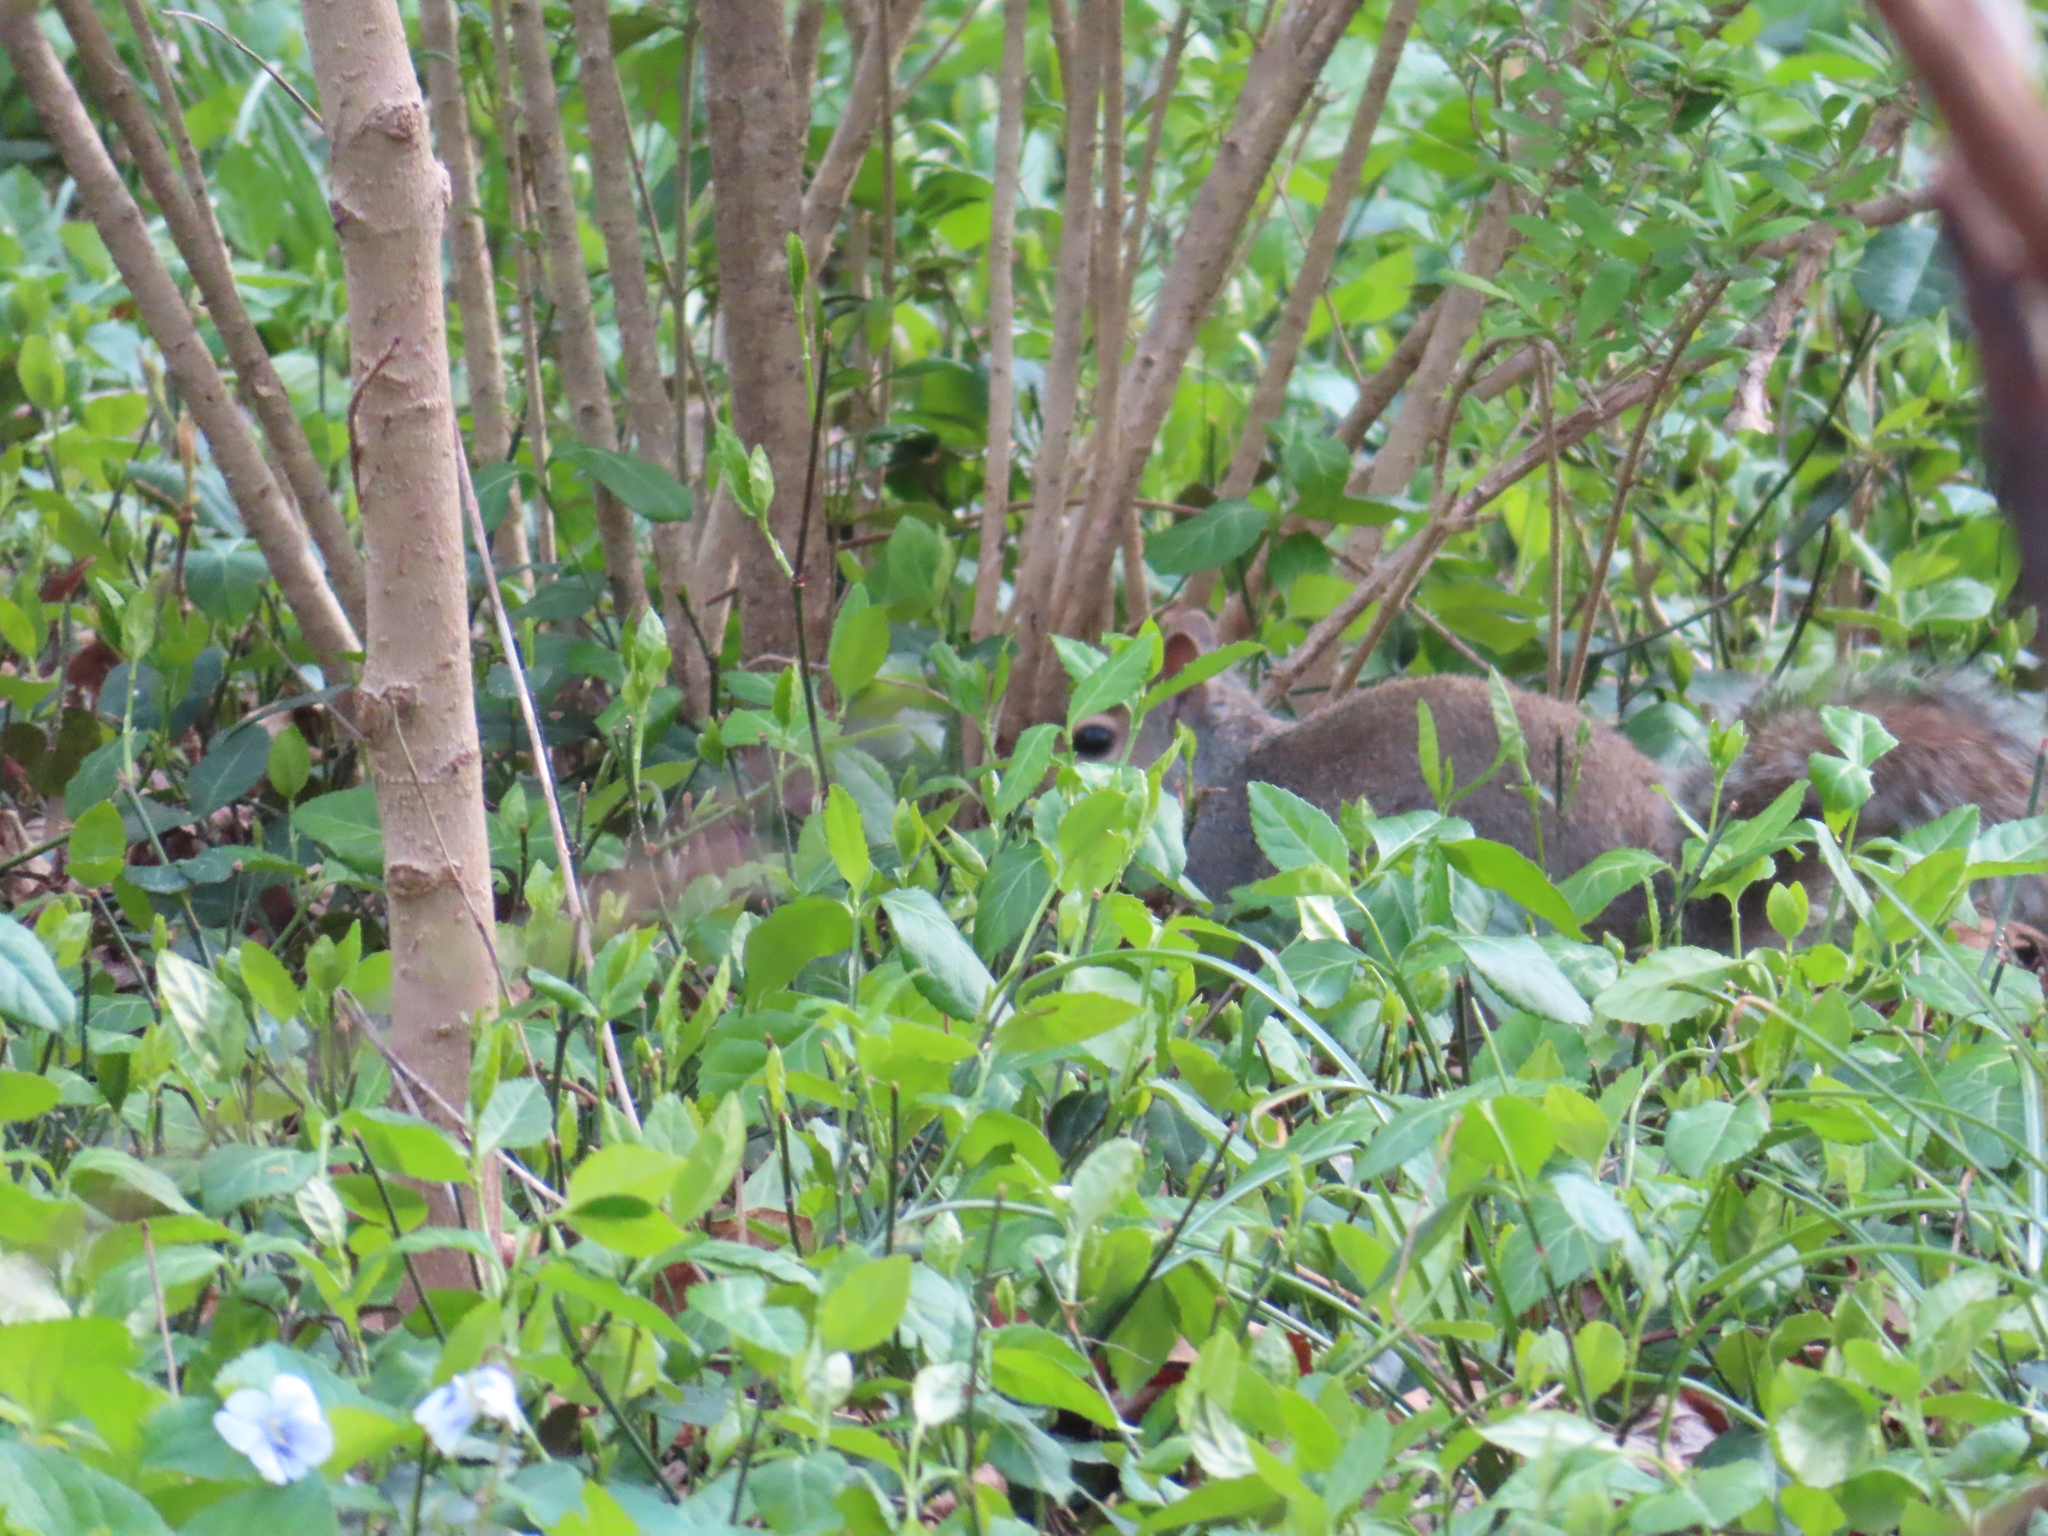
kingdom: Animalia
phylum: Chordata
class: Mammalia
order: Rodentia
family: Sciuridae
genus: Sciurus
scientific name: Sciurus carolinensis
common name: Eastern gray squirrel
